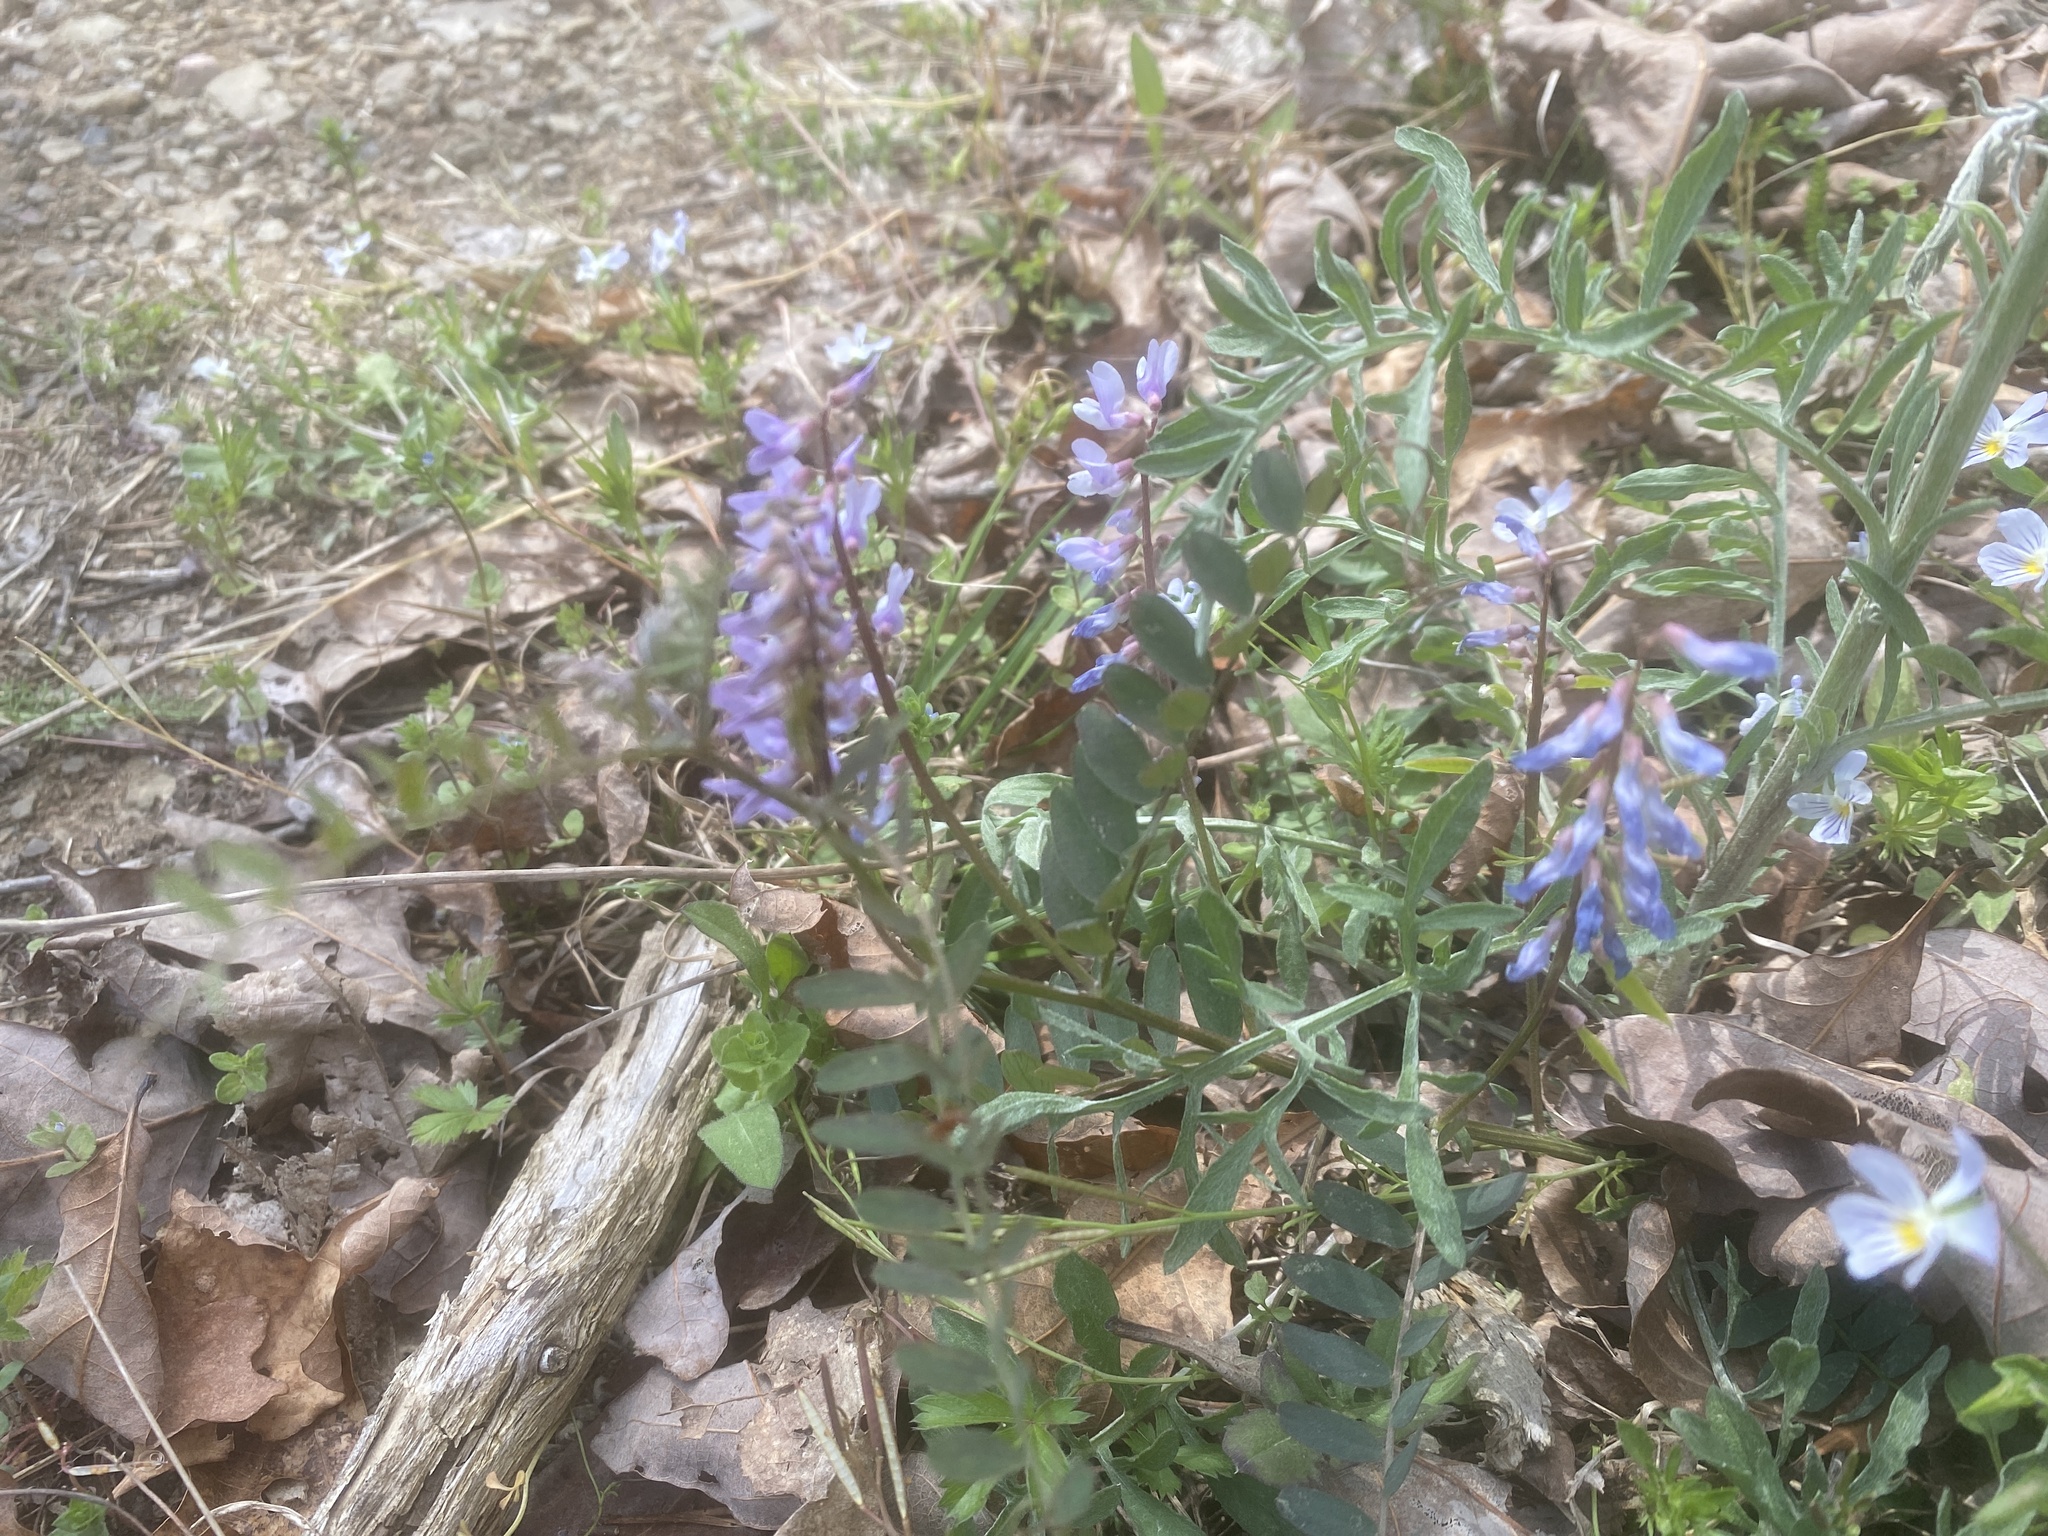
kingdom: Plantae
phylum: Tracheophyta
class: Magnoliopsida
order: Fabales
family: Fabaceae
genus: Vicia
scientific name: Vicia caroliniana
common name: Carolina vetch
